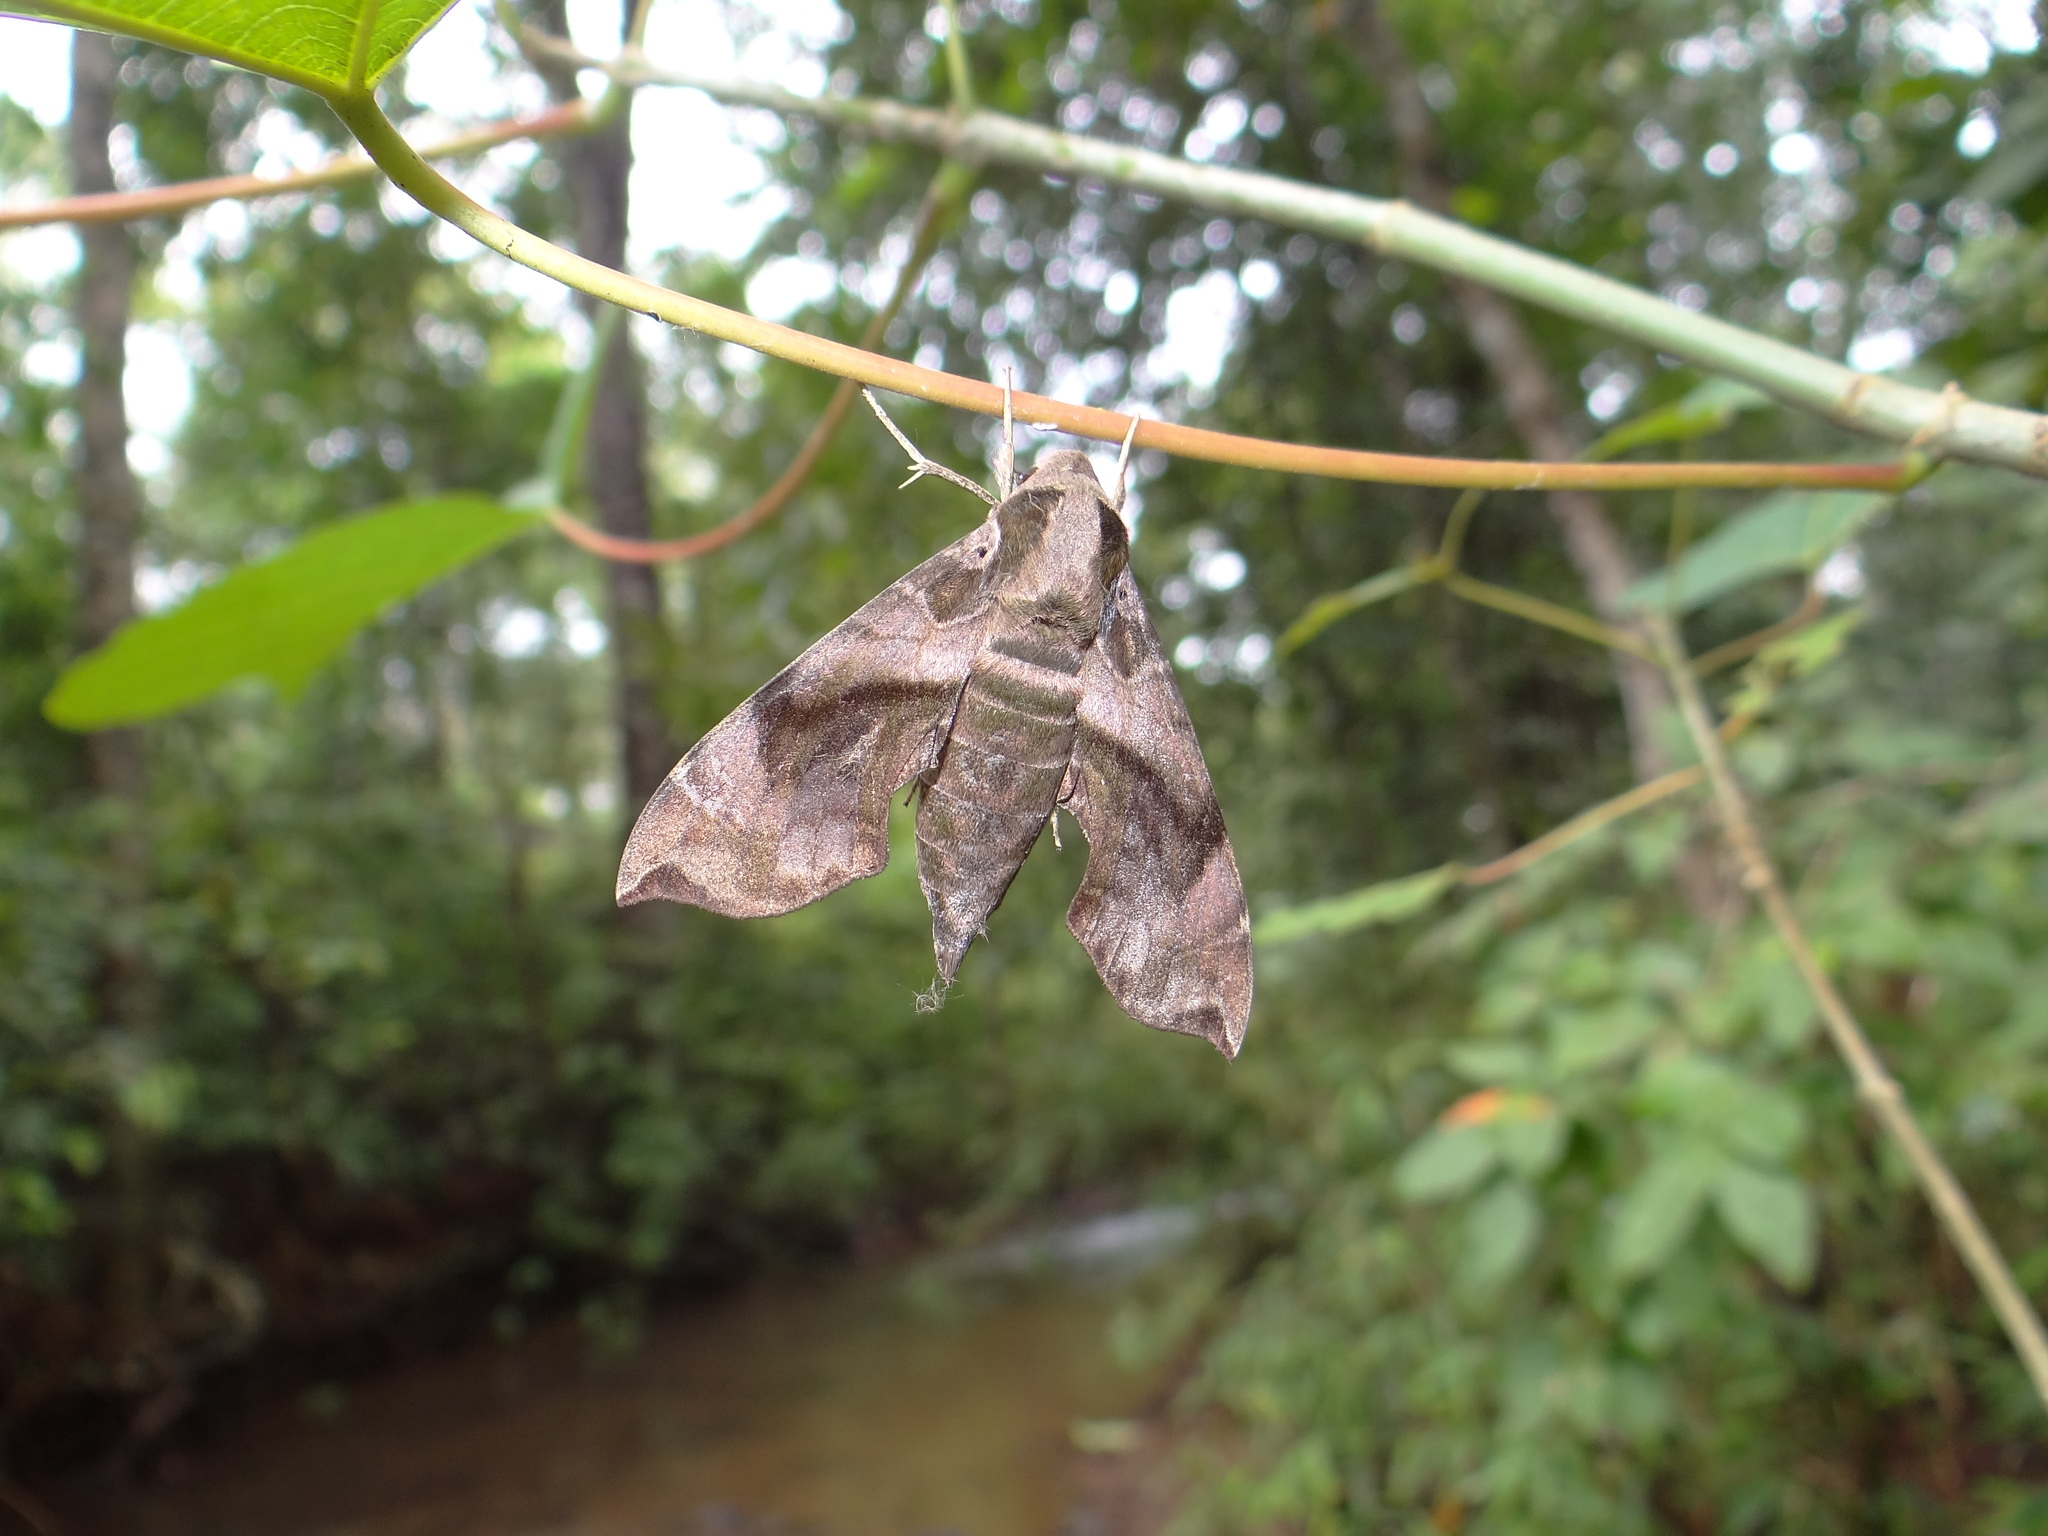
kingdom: Animalia
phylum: Arthropoda
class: Insecta
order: Lepidoptera
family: Sphingidae
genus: Daphnis
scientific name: Daphnis minima
